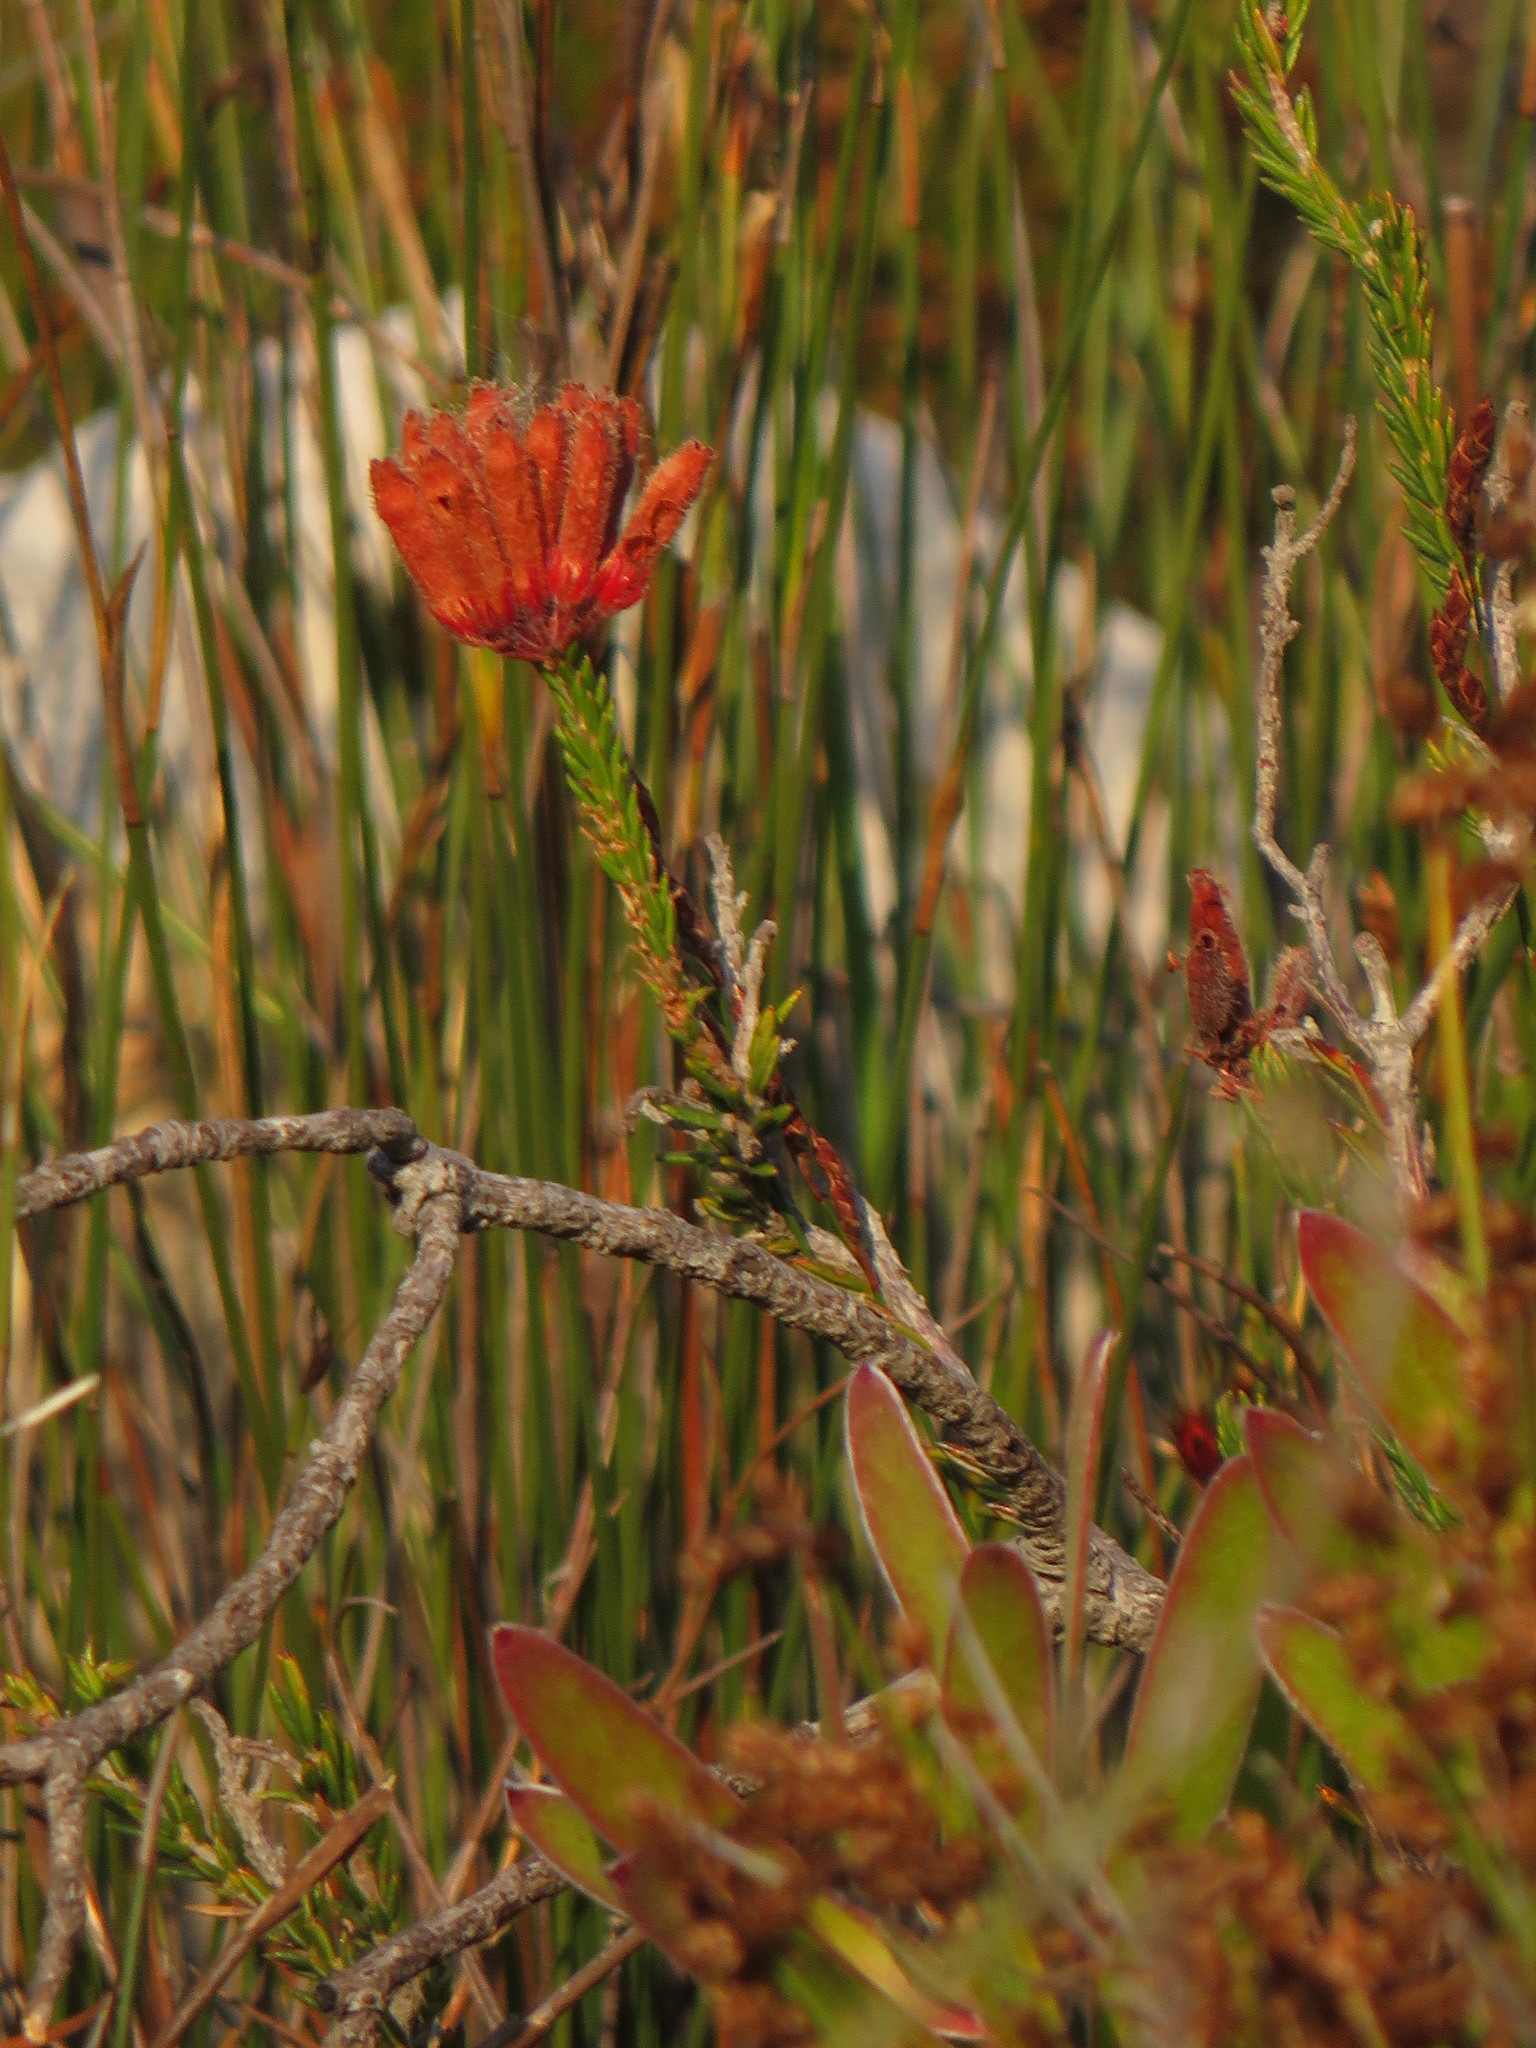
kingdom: Plantae
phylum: Tracheophyta
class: Magnoliopsida
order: Ericales
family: Ericaceae
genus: Erica
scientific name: Erica cerinthoides
